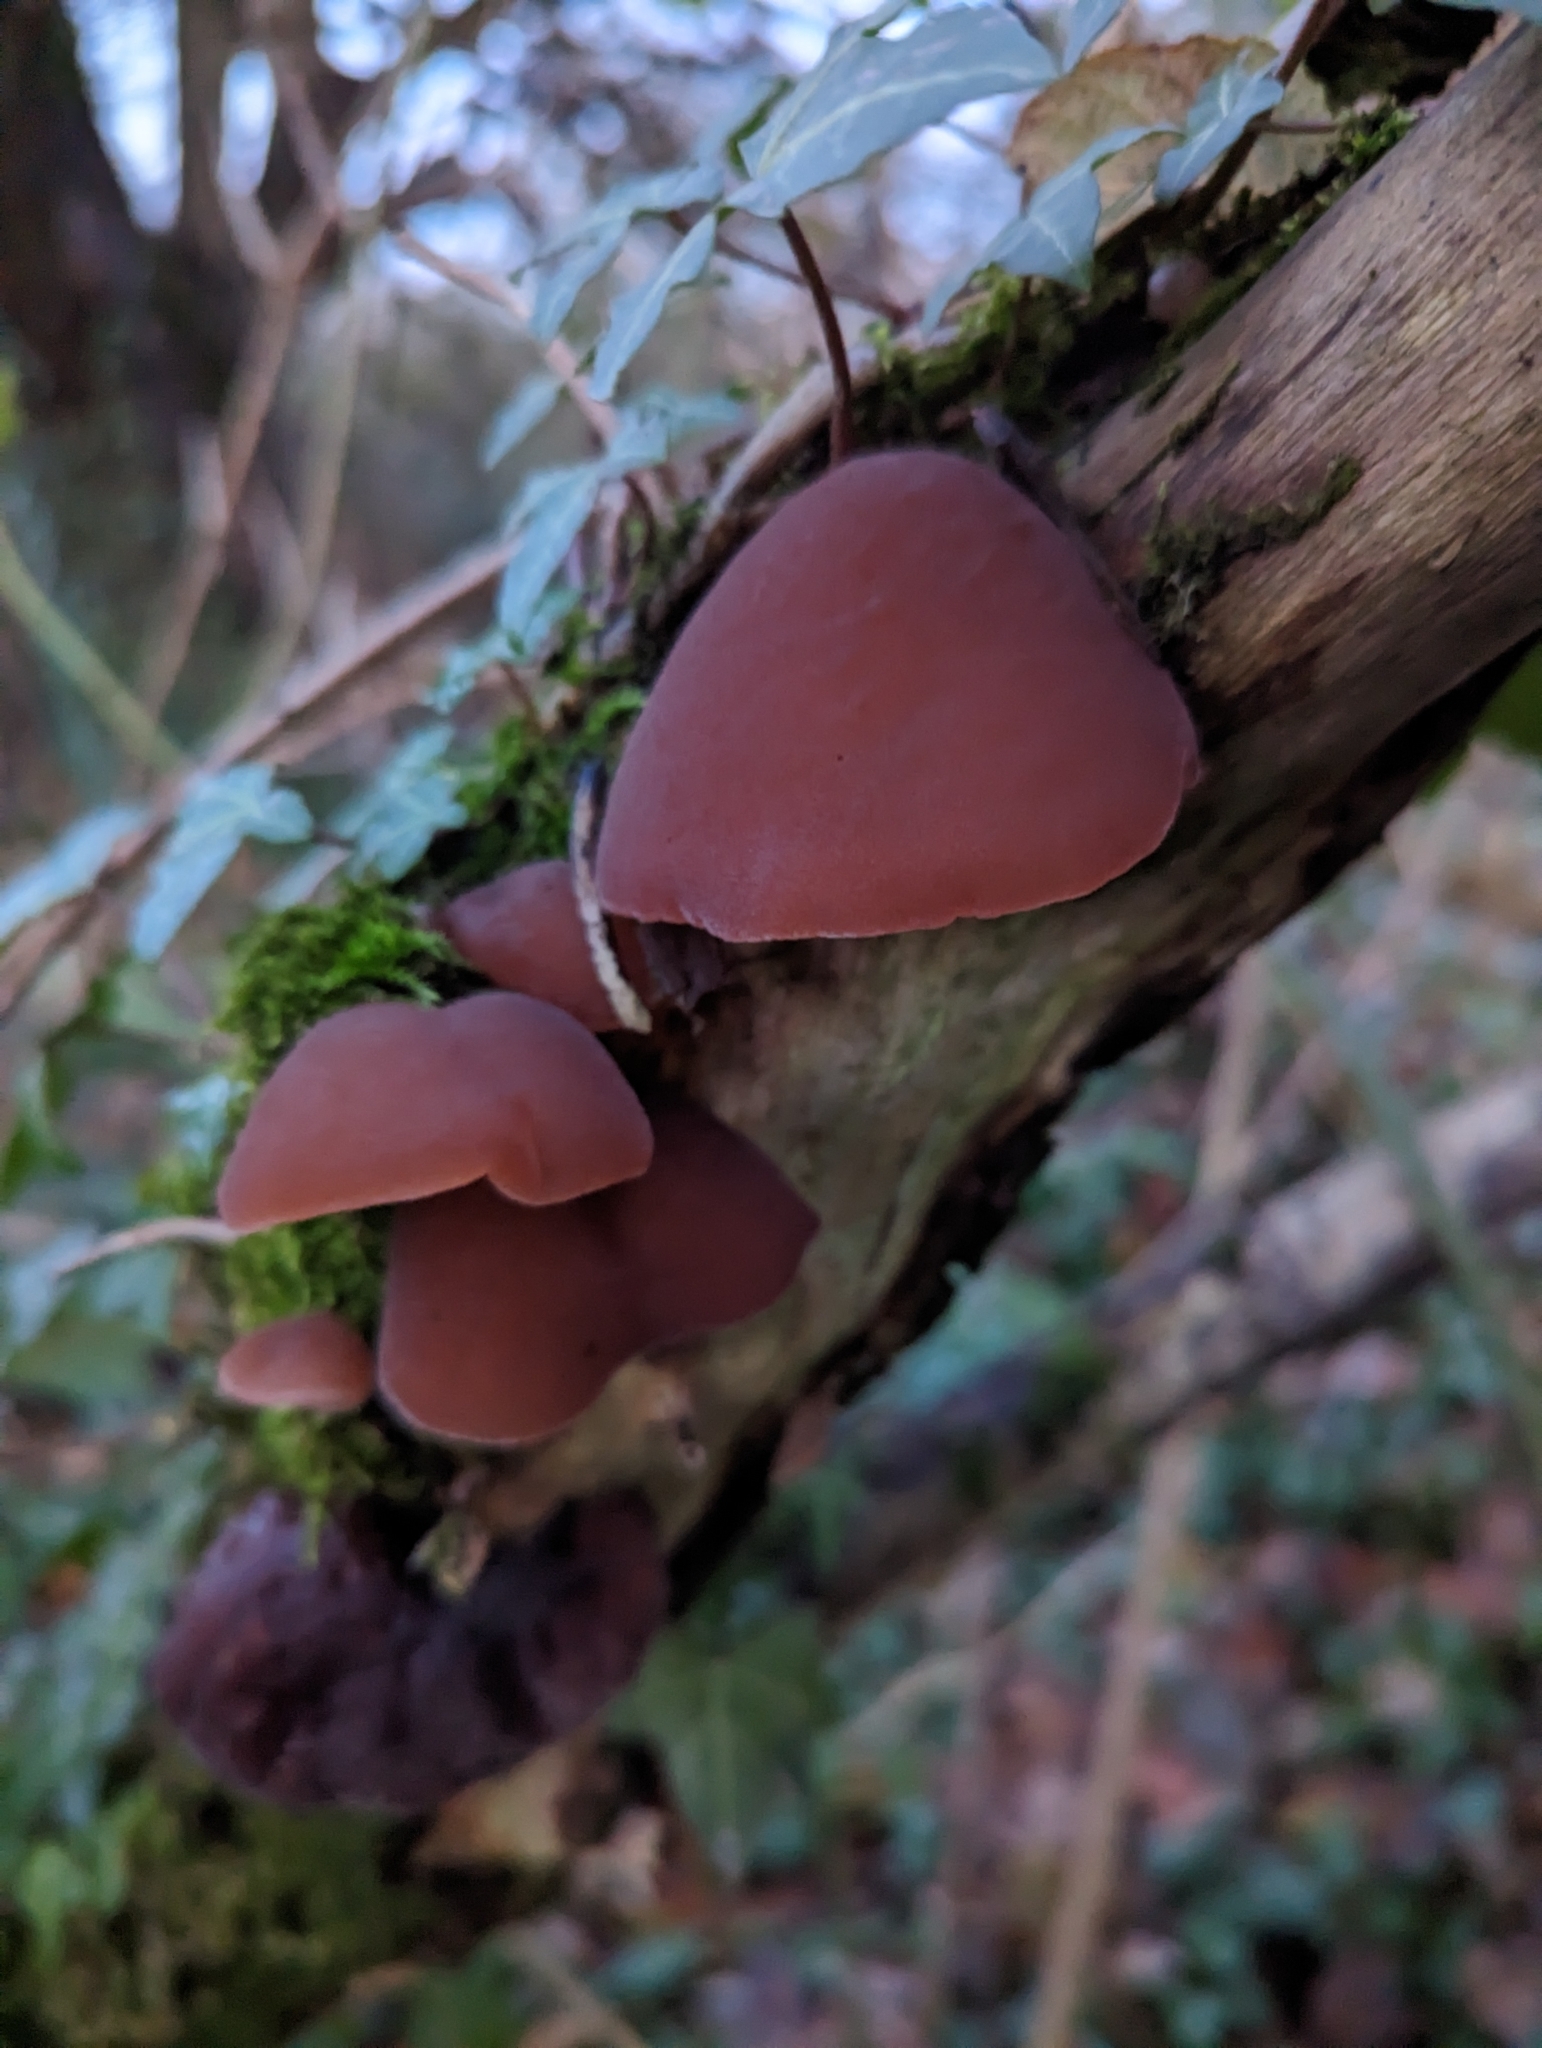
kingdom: Fungi
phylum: Basidiomycota
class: Agaricomycetes
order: Auriculariales
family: Auriculariaceae
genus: Auricularia
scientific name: Auricularia auricula-judae
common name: Jelly ear
